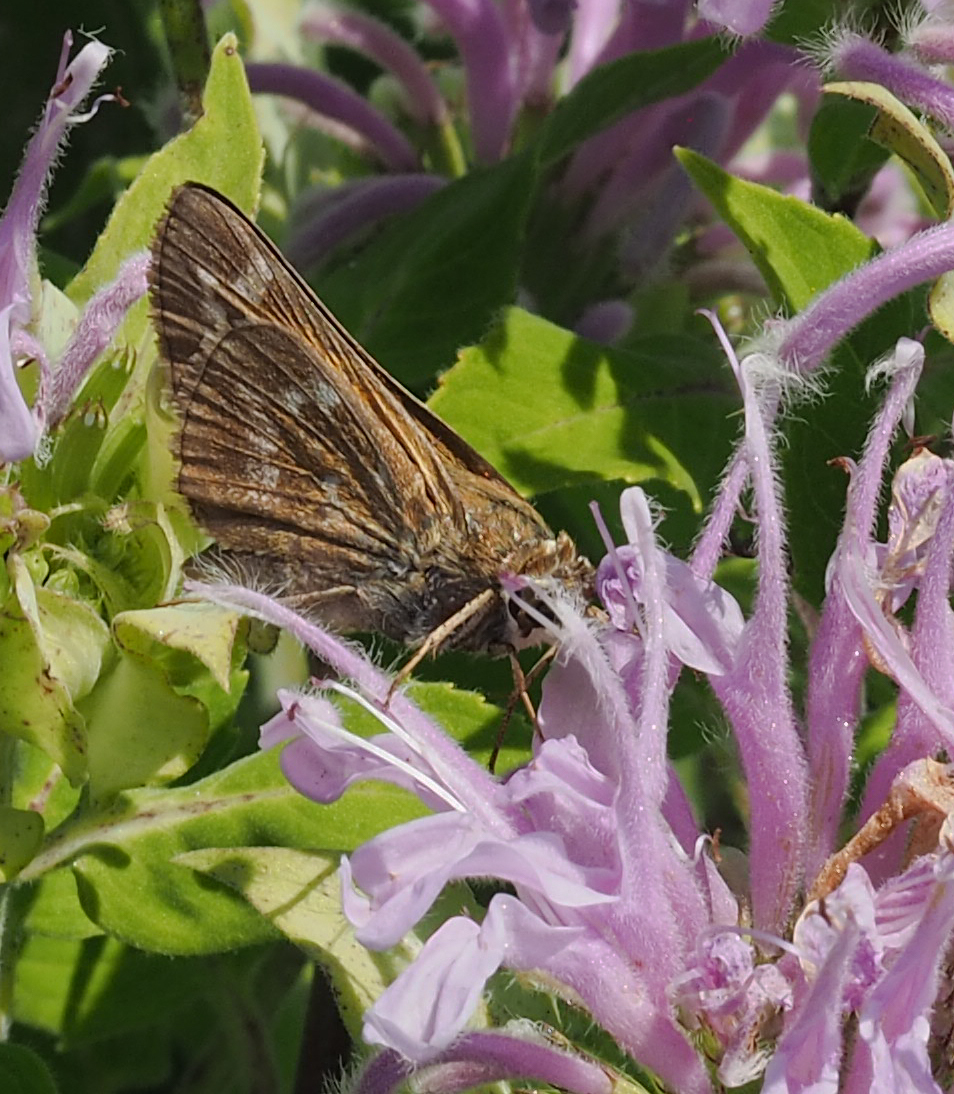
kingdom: Animalia
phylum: Arthropoda
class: Insecta
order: Lepidoptera
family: Hesperiidae
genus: Atalopedes
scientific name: Atalopedes
